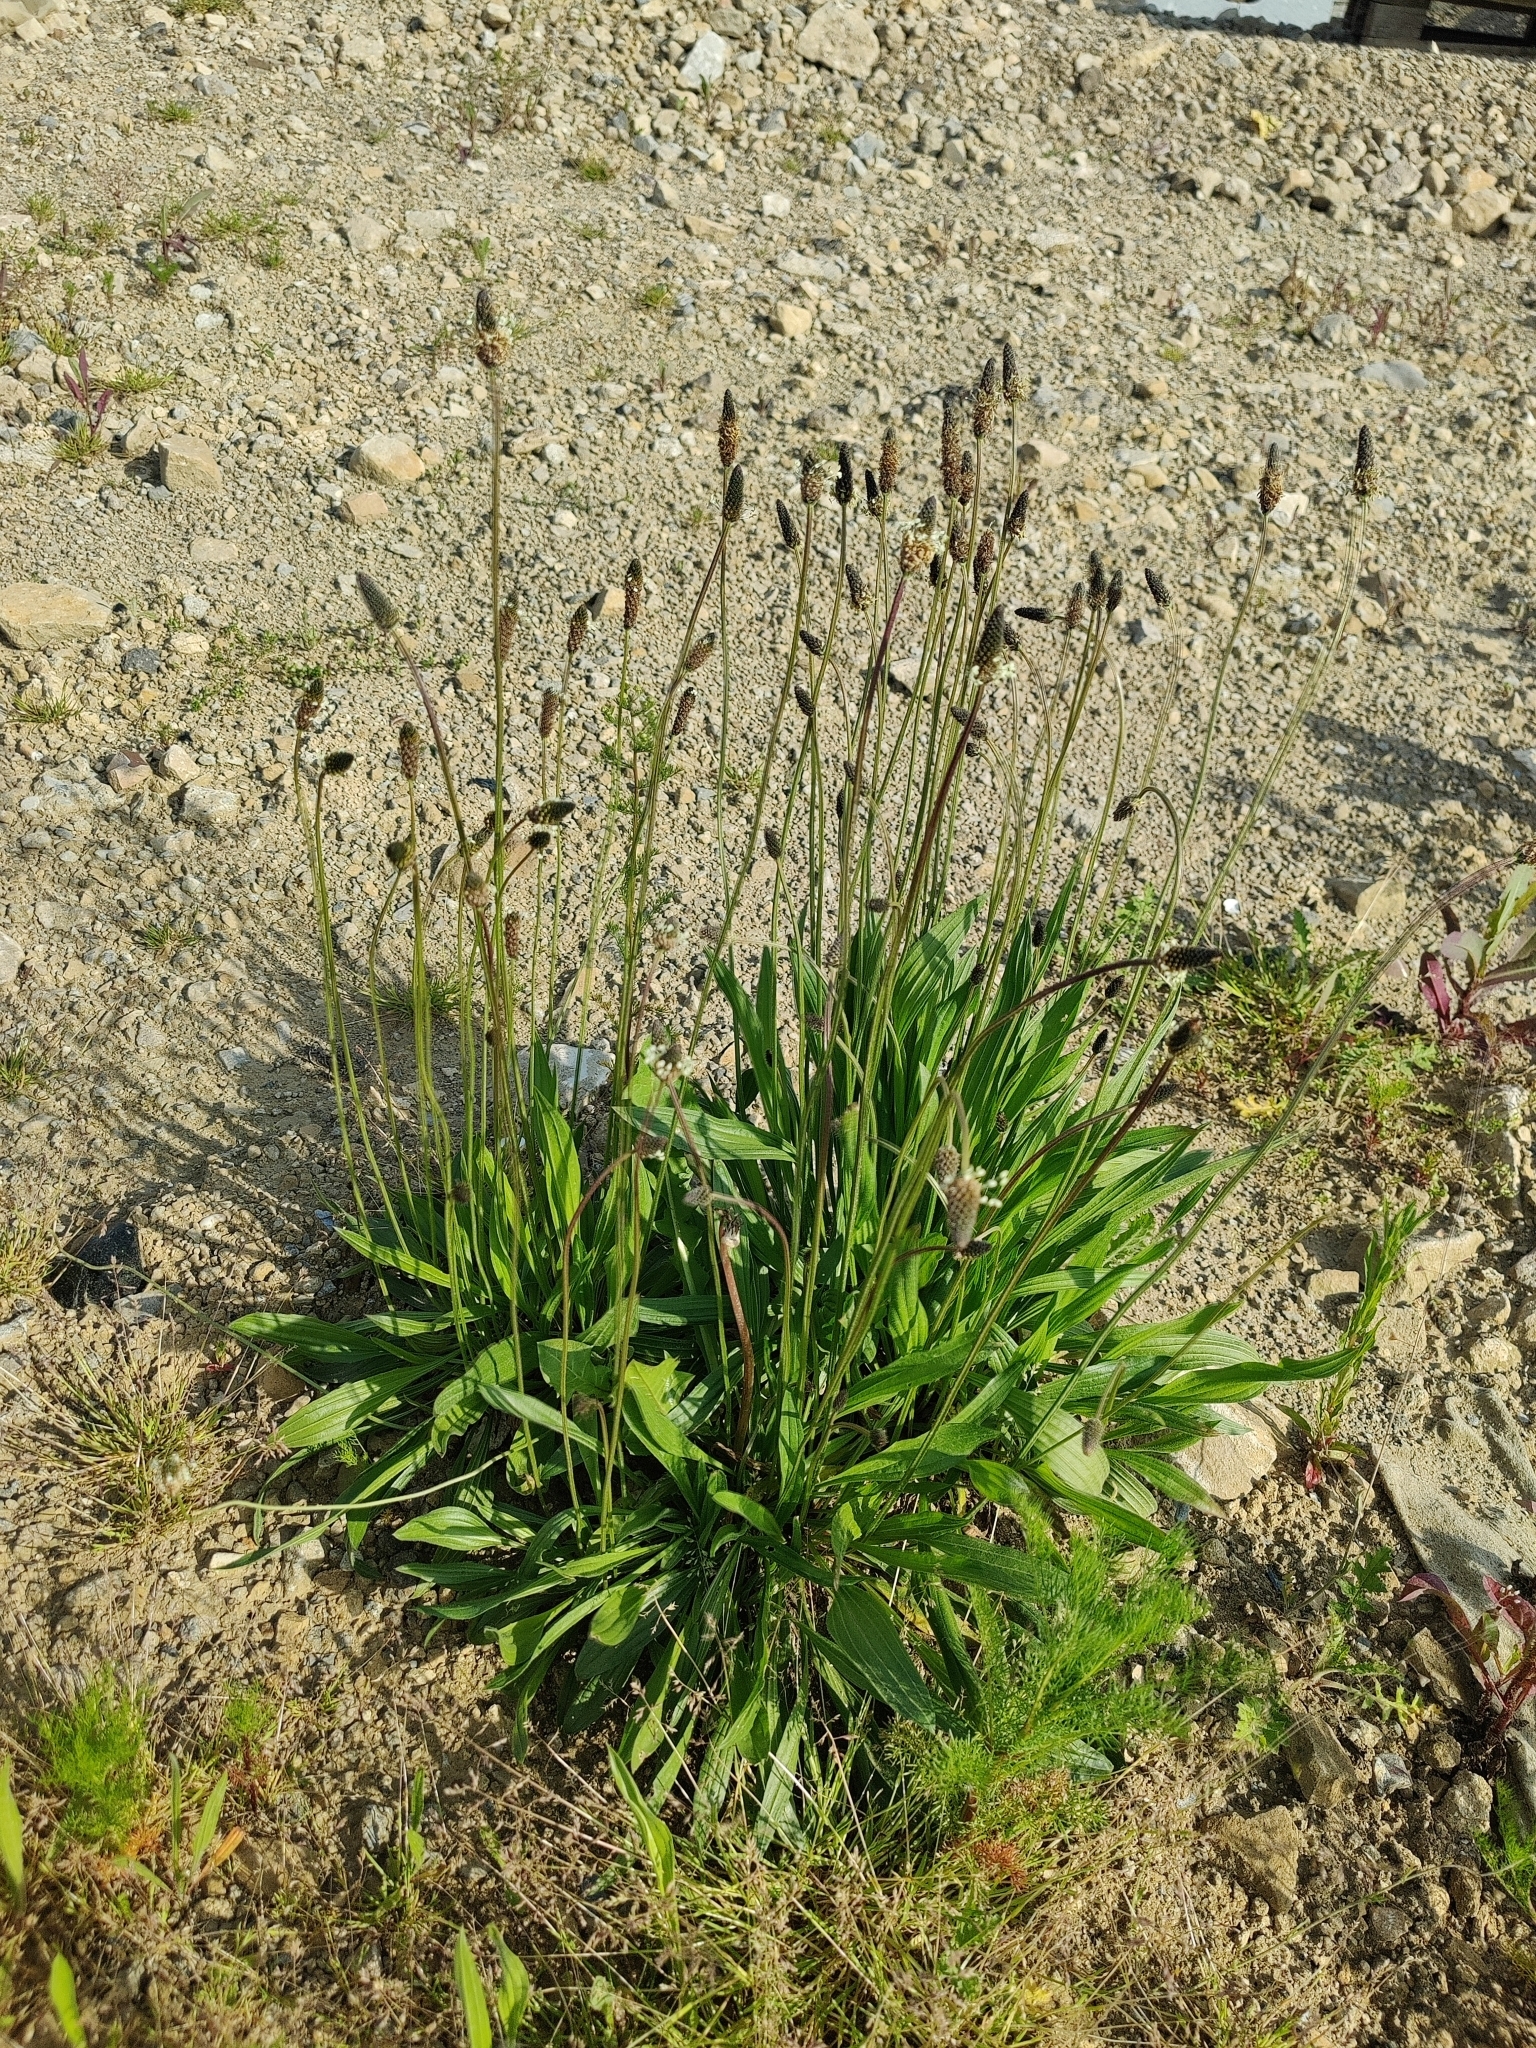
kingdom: Plantae
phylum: Tracheophyta
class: Magnoliopsida
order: Lamiales
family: Plantaginaceae
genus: Plantago
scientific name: Plantago lanceolata
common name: Ribwort plantain
